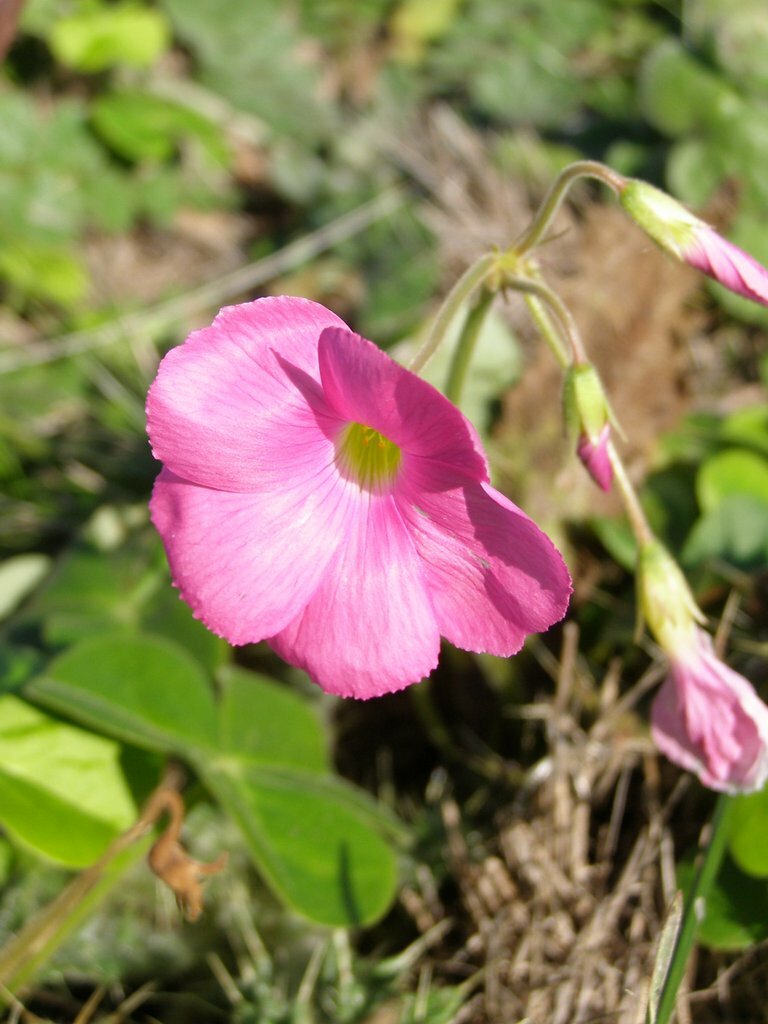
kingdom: Plantae
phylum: Tracheophyta
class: Magnoliopsida
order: Oxalidales
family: Oxalidaceae
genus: Oxalis
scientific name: Oxalis bowiei
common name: Bowie's wood-sorrel
